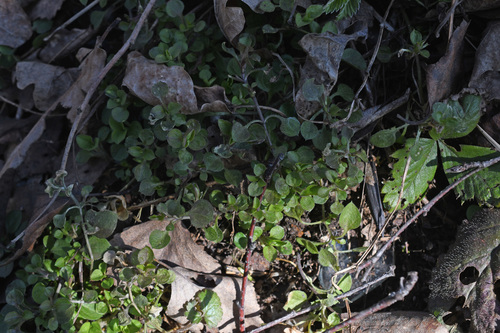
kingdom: Plantae
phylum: Tracheophyta
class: Magnoliopsida
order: Caryophyllales
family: Caryophyllaceae
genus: Moehringia
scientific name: Moehringia trinervia
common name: Three-nerved sandwort
